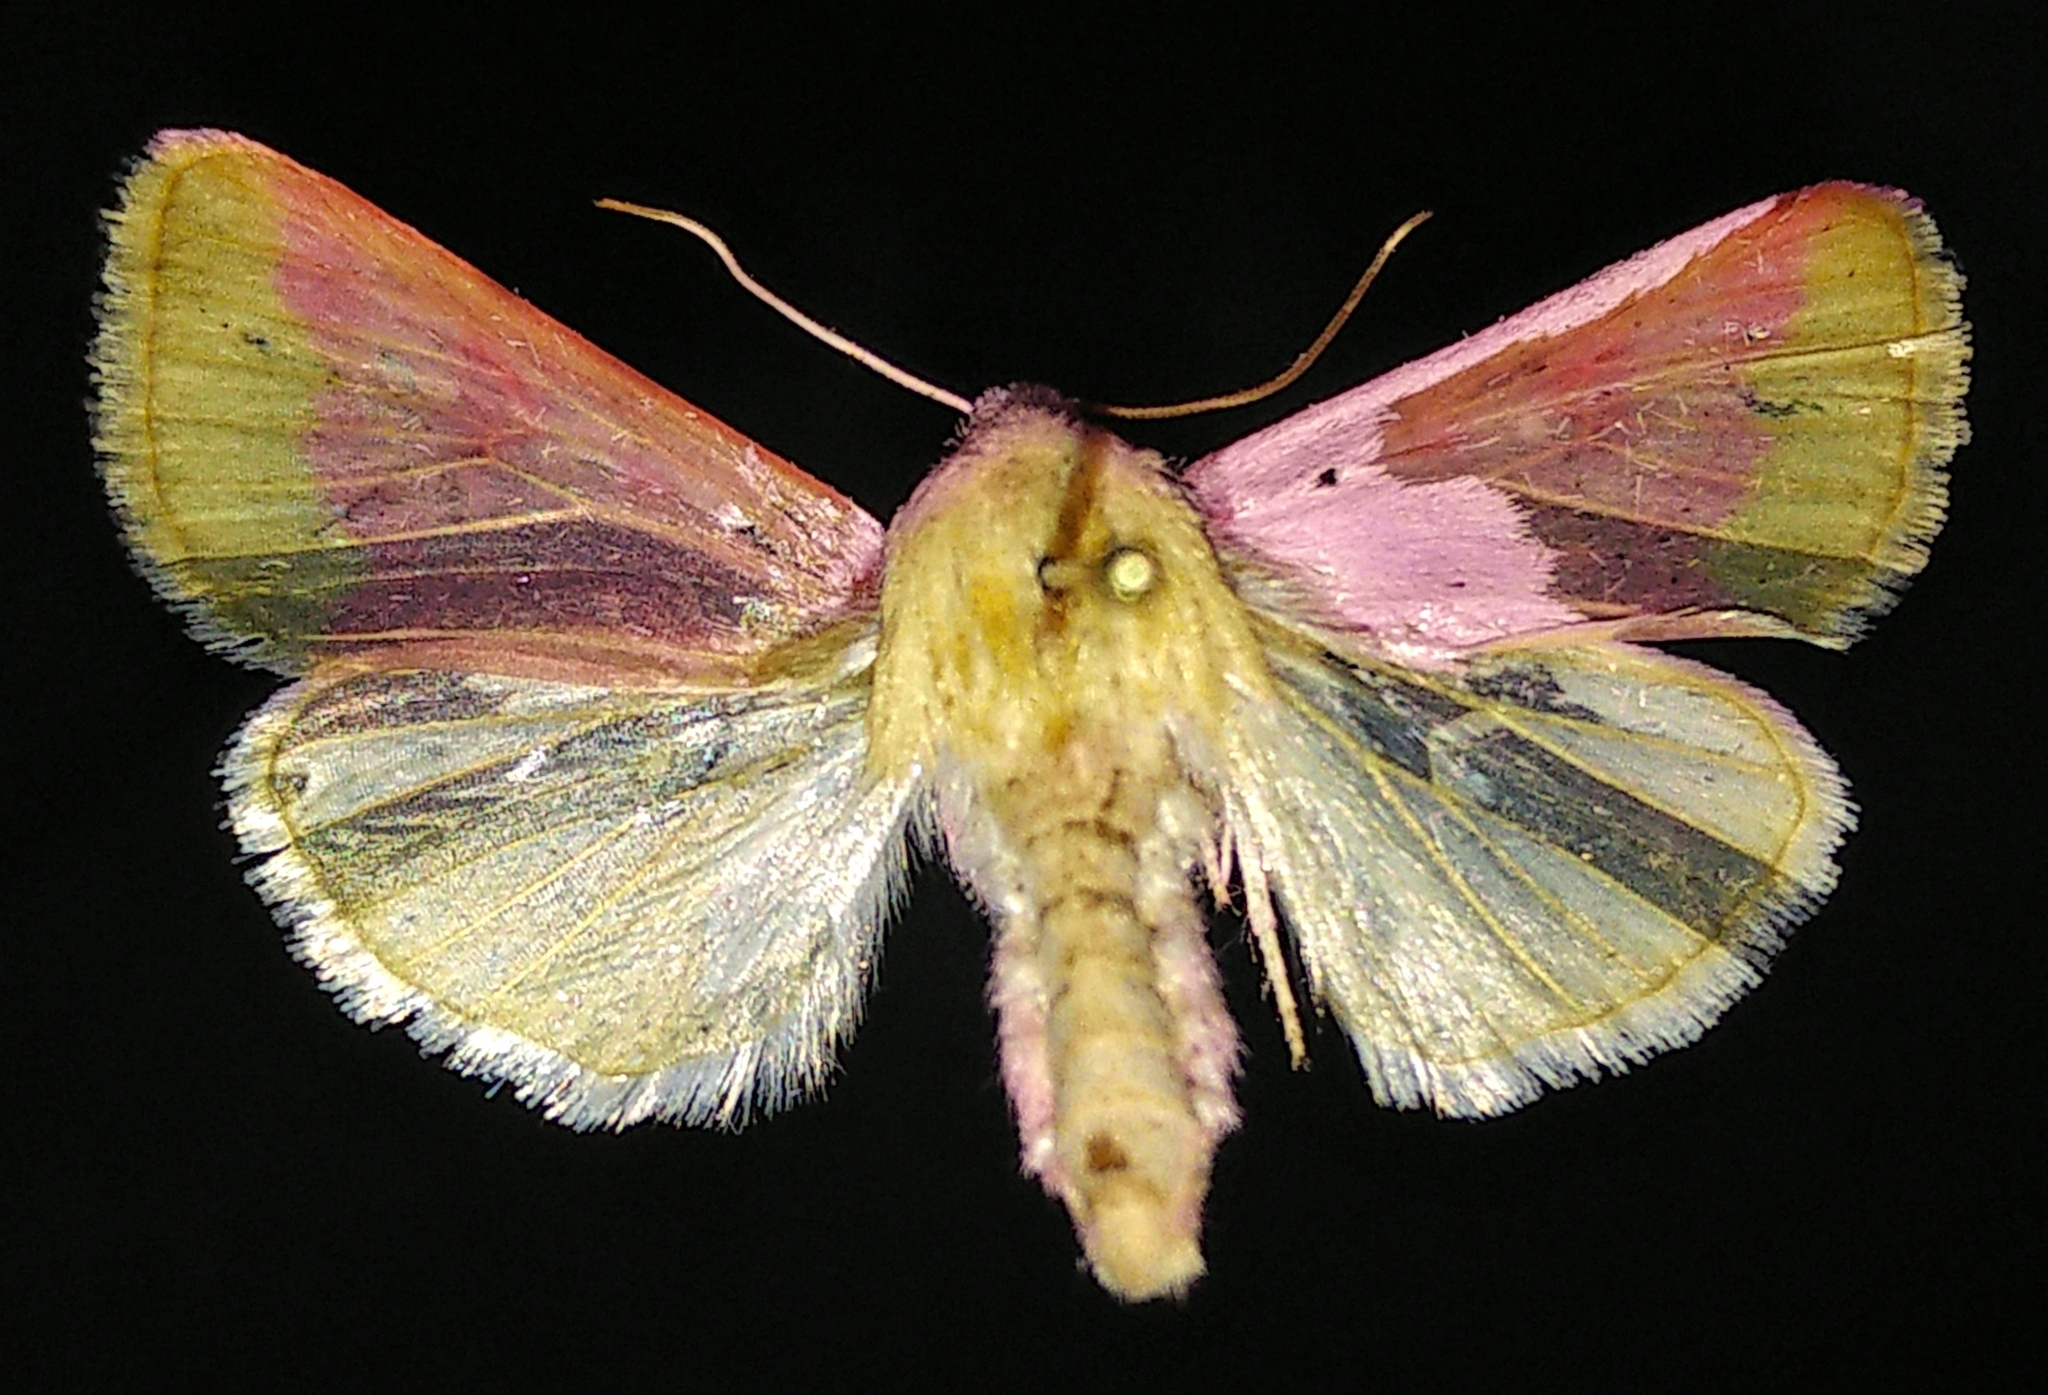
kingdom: Animalia
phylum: Arthropoda
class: Insecta
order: Lepidoptera
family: Noctuidae
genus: Schinia
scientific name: Schinia florida
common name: Primrose moth
